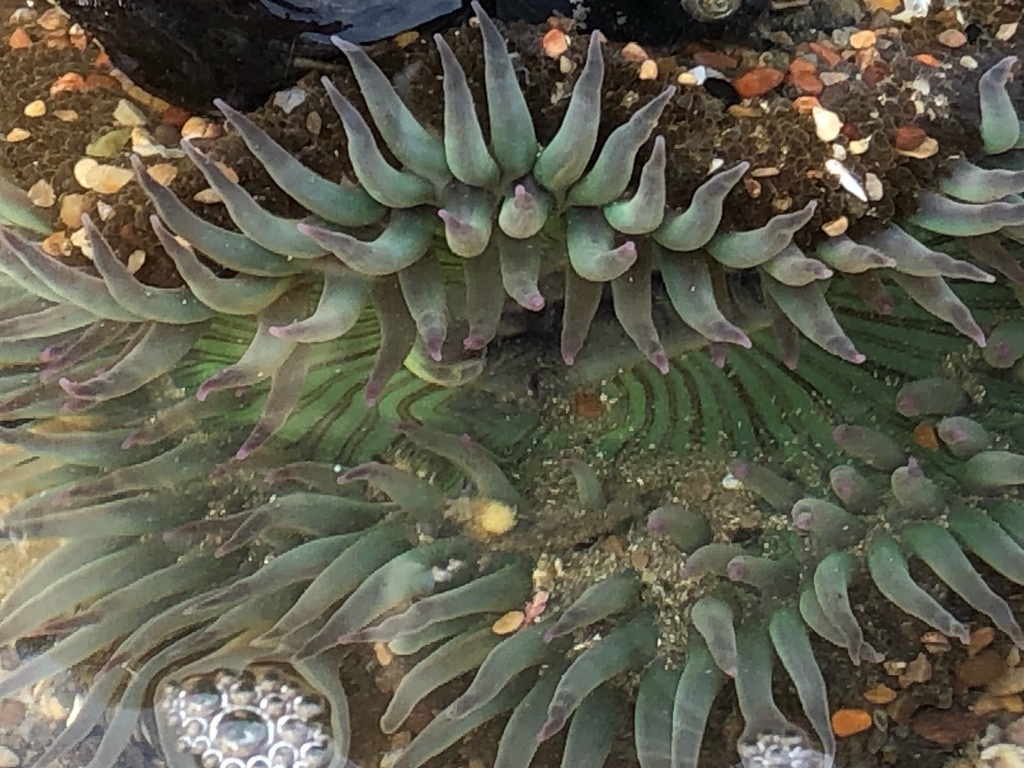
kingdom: Animalia
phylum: Cnidaria
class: Anthozoa
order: Actiniaria
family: Actiniidae
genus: Anthopleura
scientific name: Anthopleura sola
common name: Sun anemone
